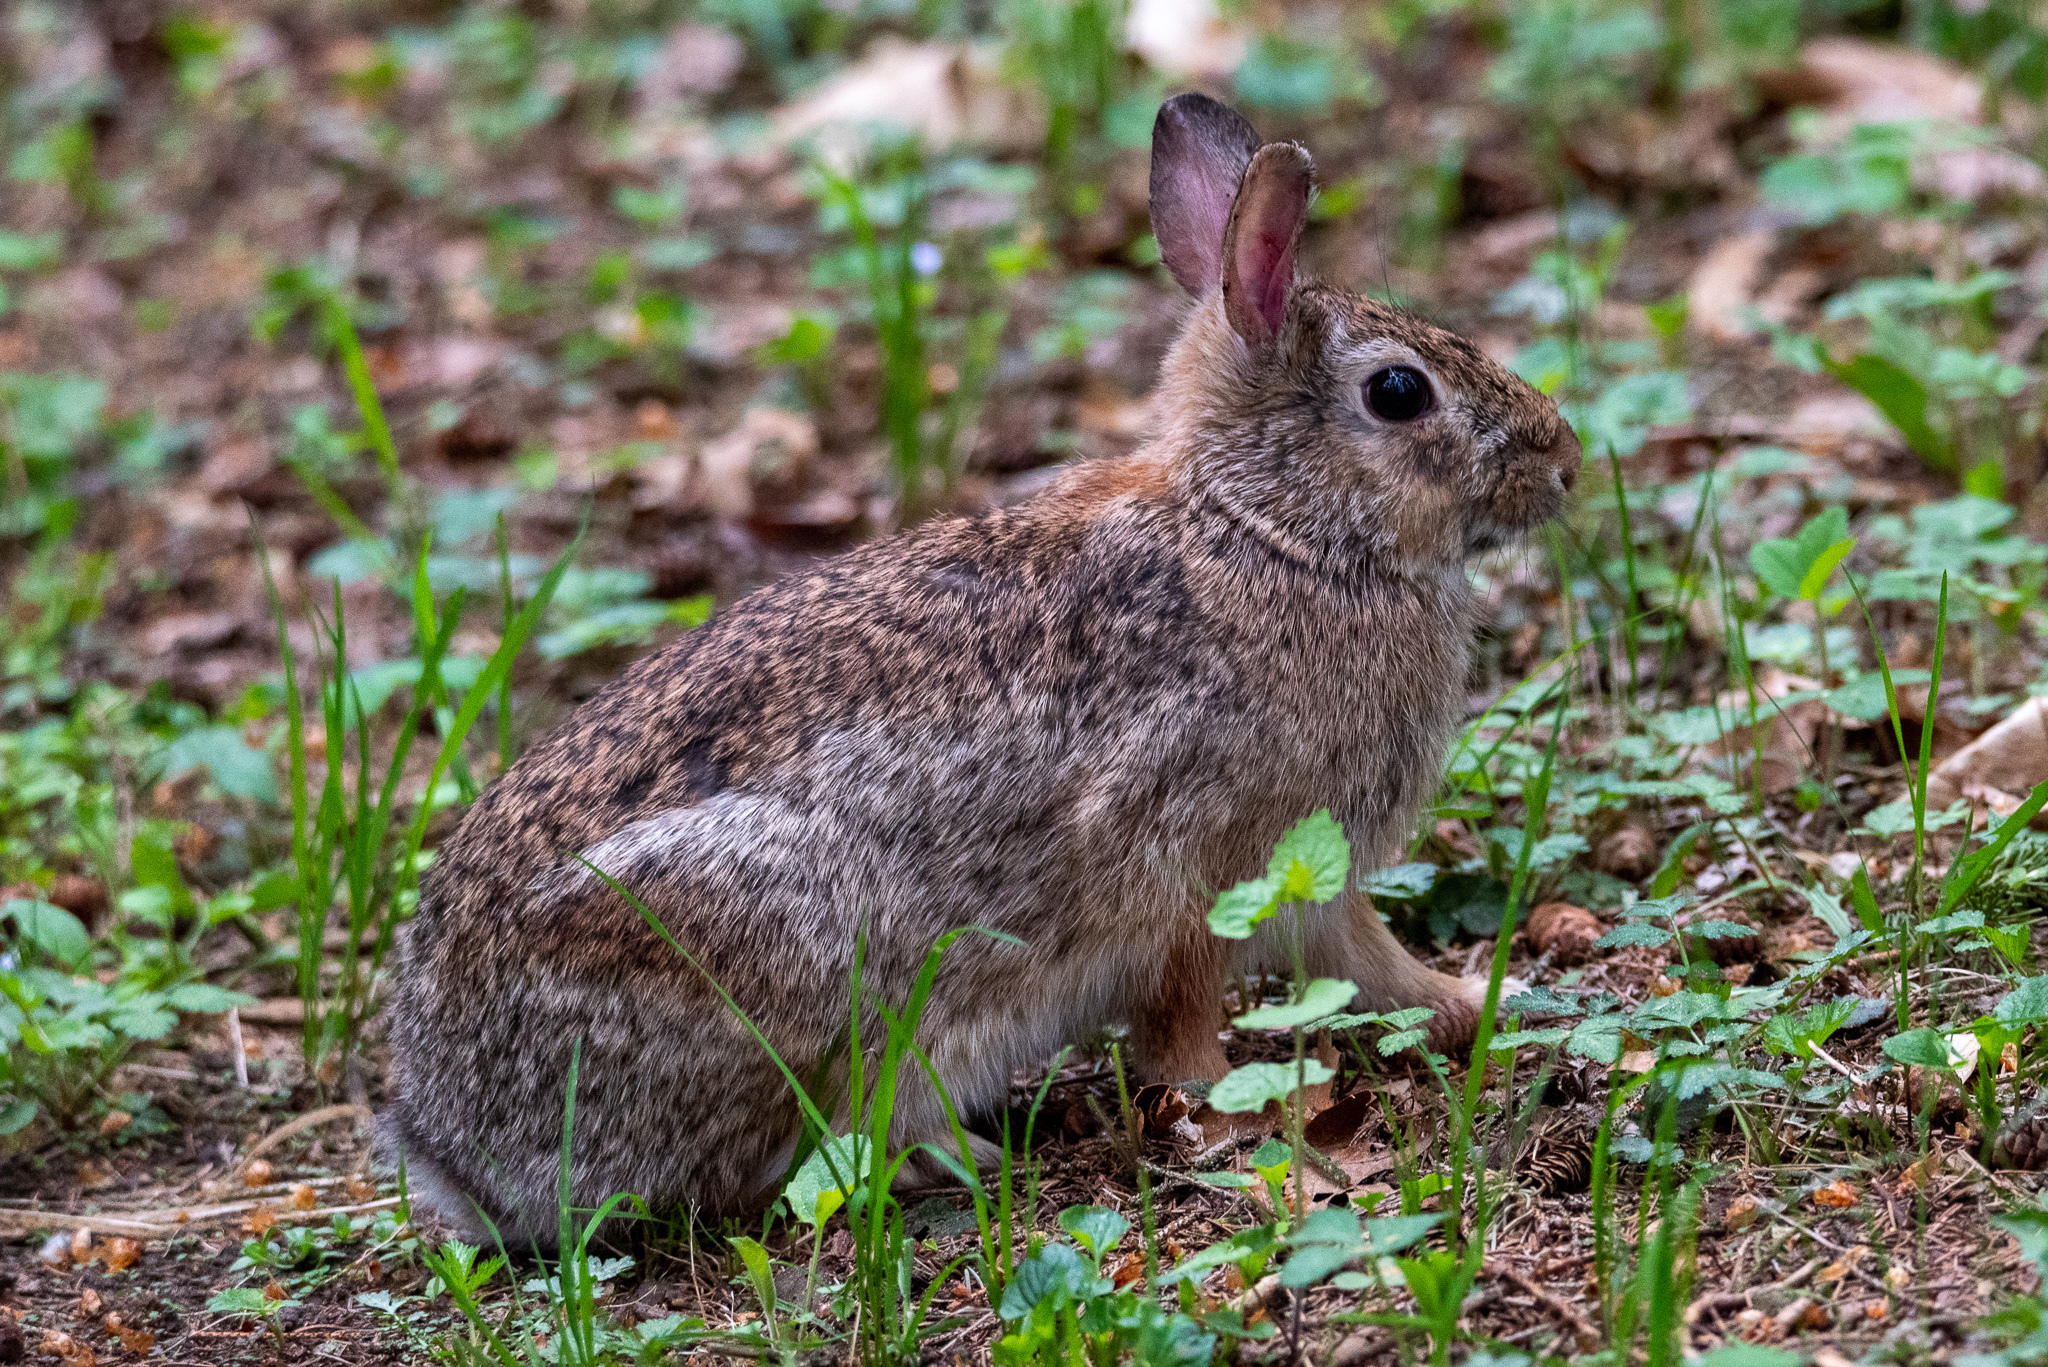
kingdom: Animalia
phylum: Chordata
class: Mammalia
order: Lagomorpha
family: Leporidae
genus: Sylvilagus
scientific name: Sylvilagus floridanus
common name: Eastern cottontail
